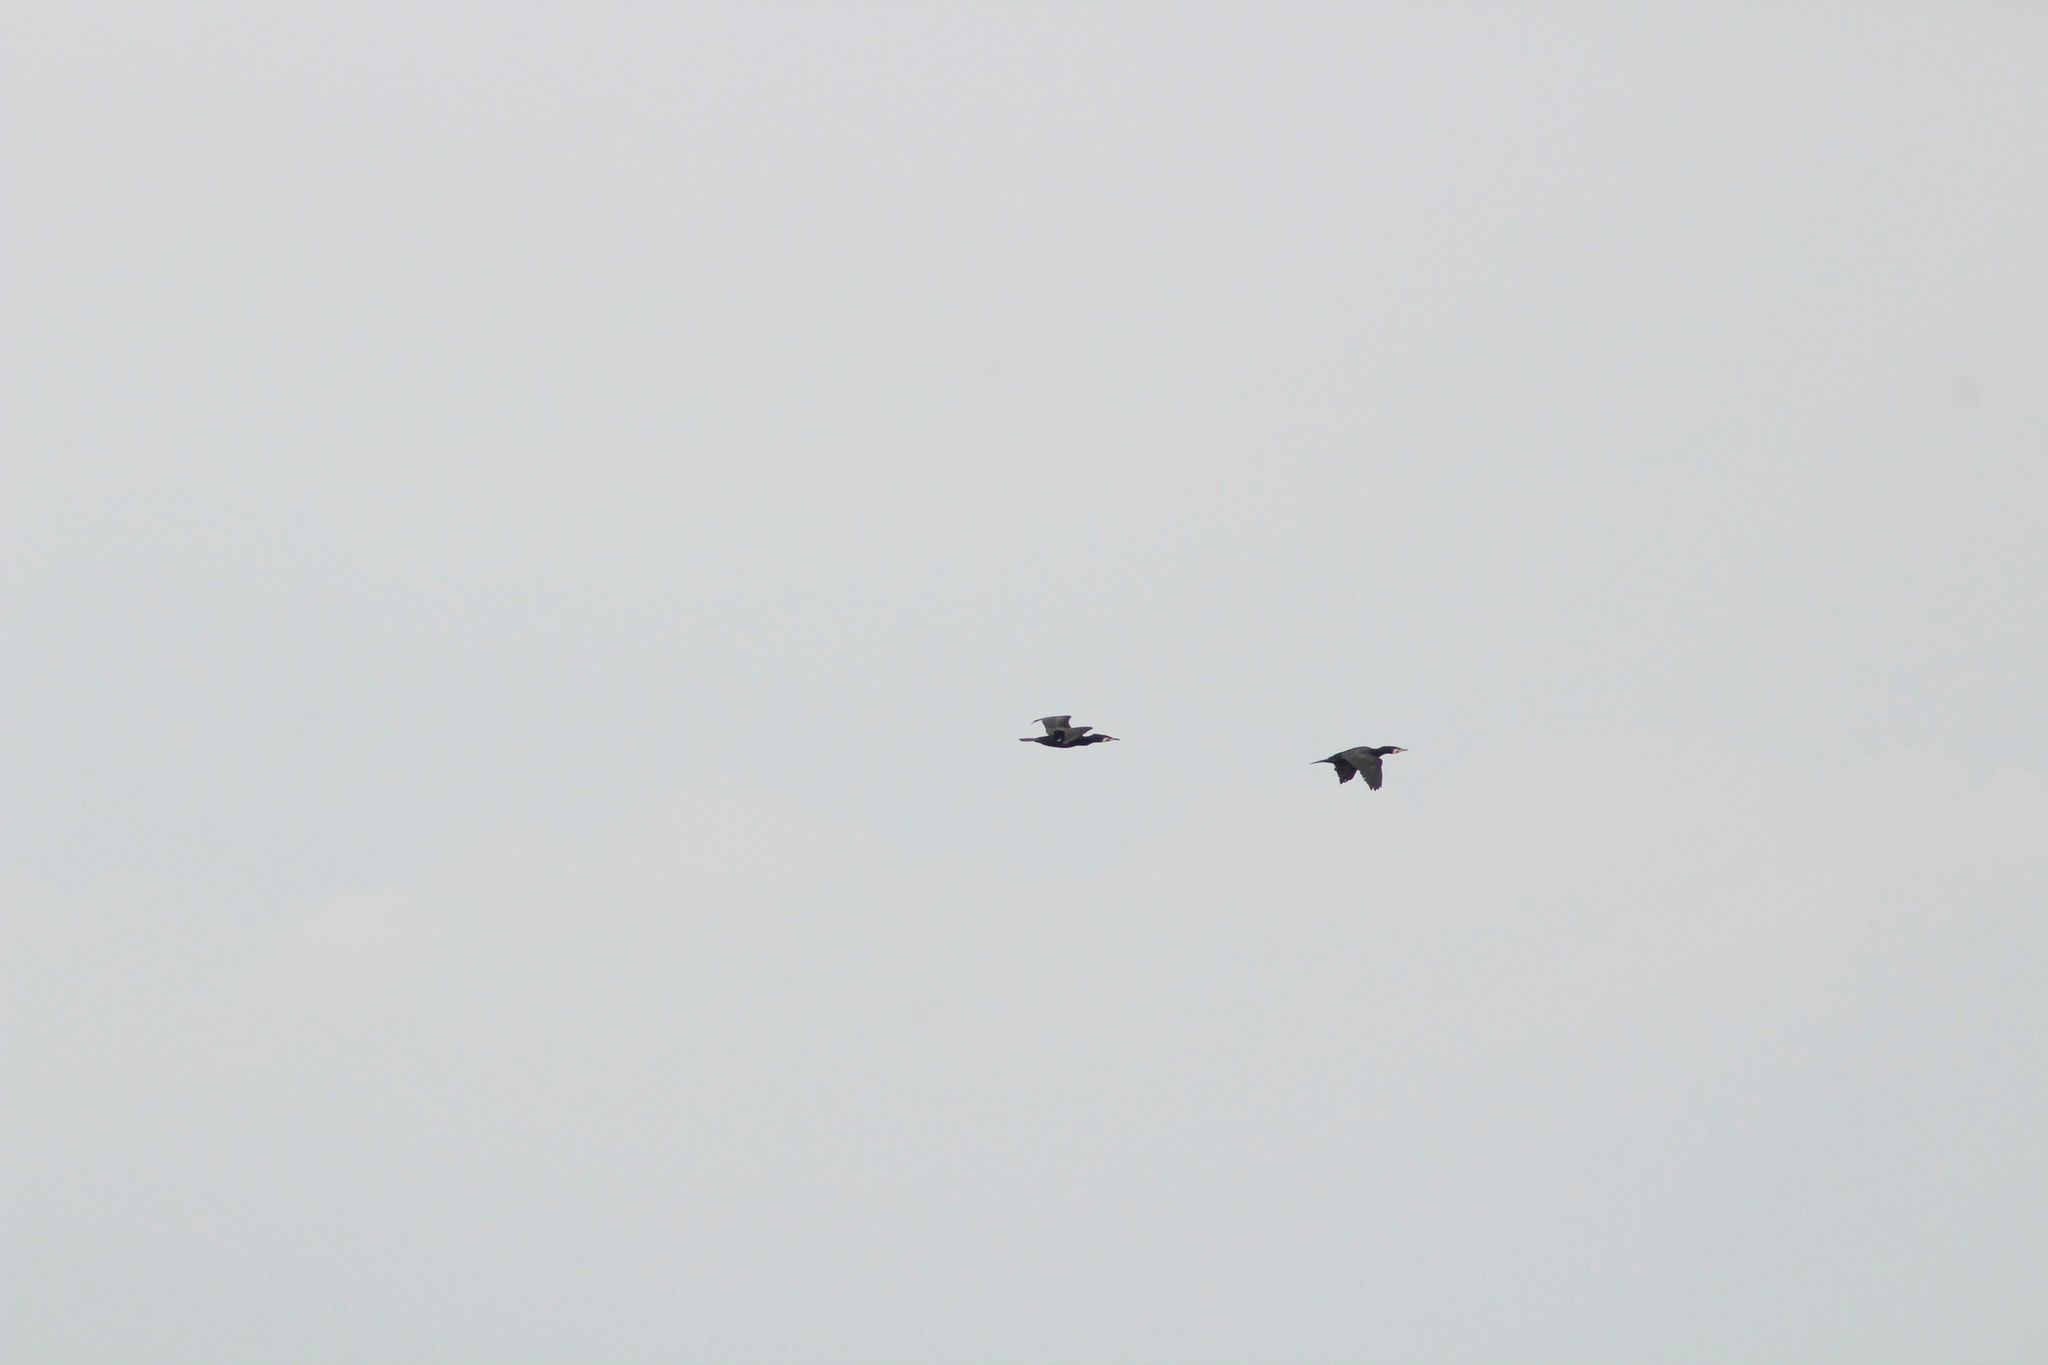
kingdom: Animalia
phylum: Chordata
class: Aves
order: Suliformes
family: Phalacrocoracidae
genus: Phalacrocorax
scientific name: Phalacrocorax carbo
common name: Great cormorant
